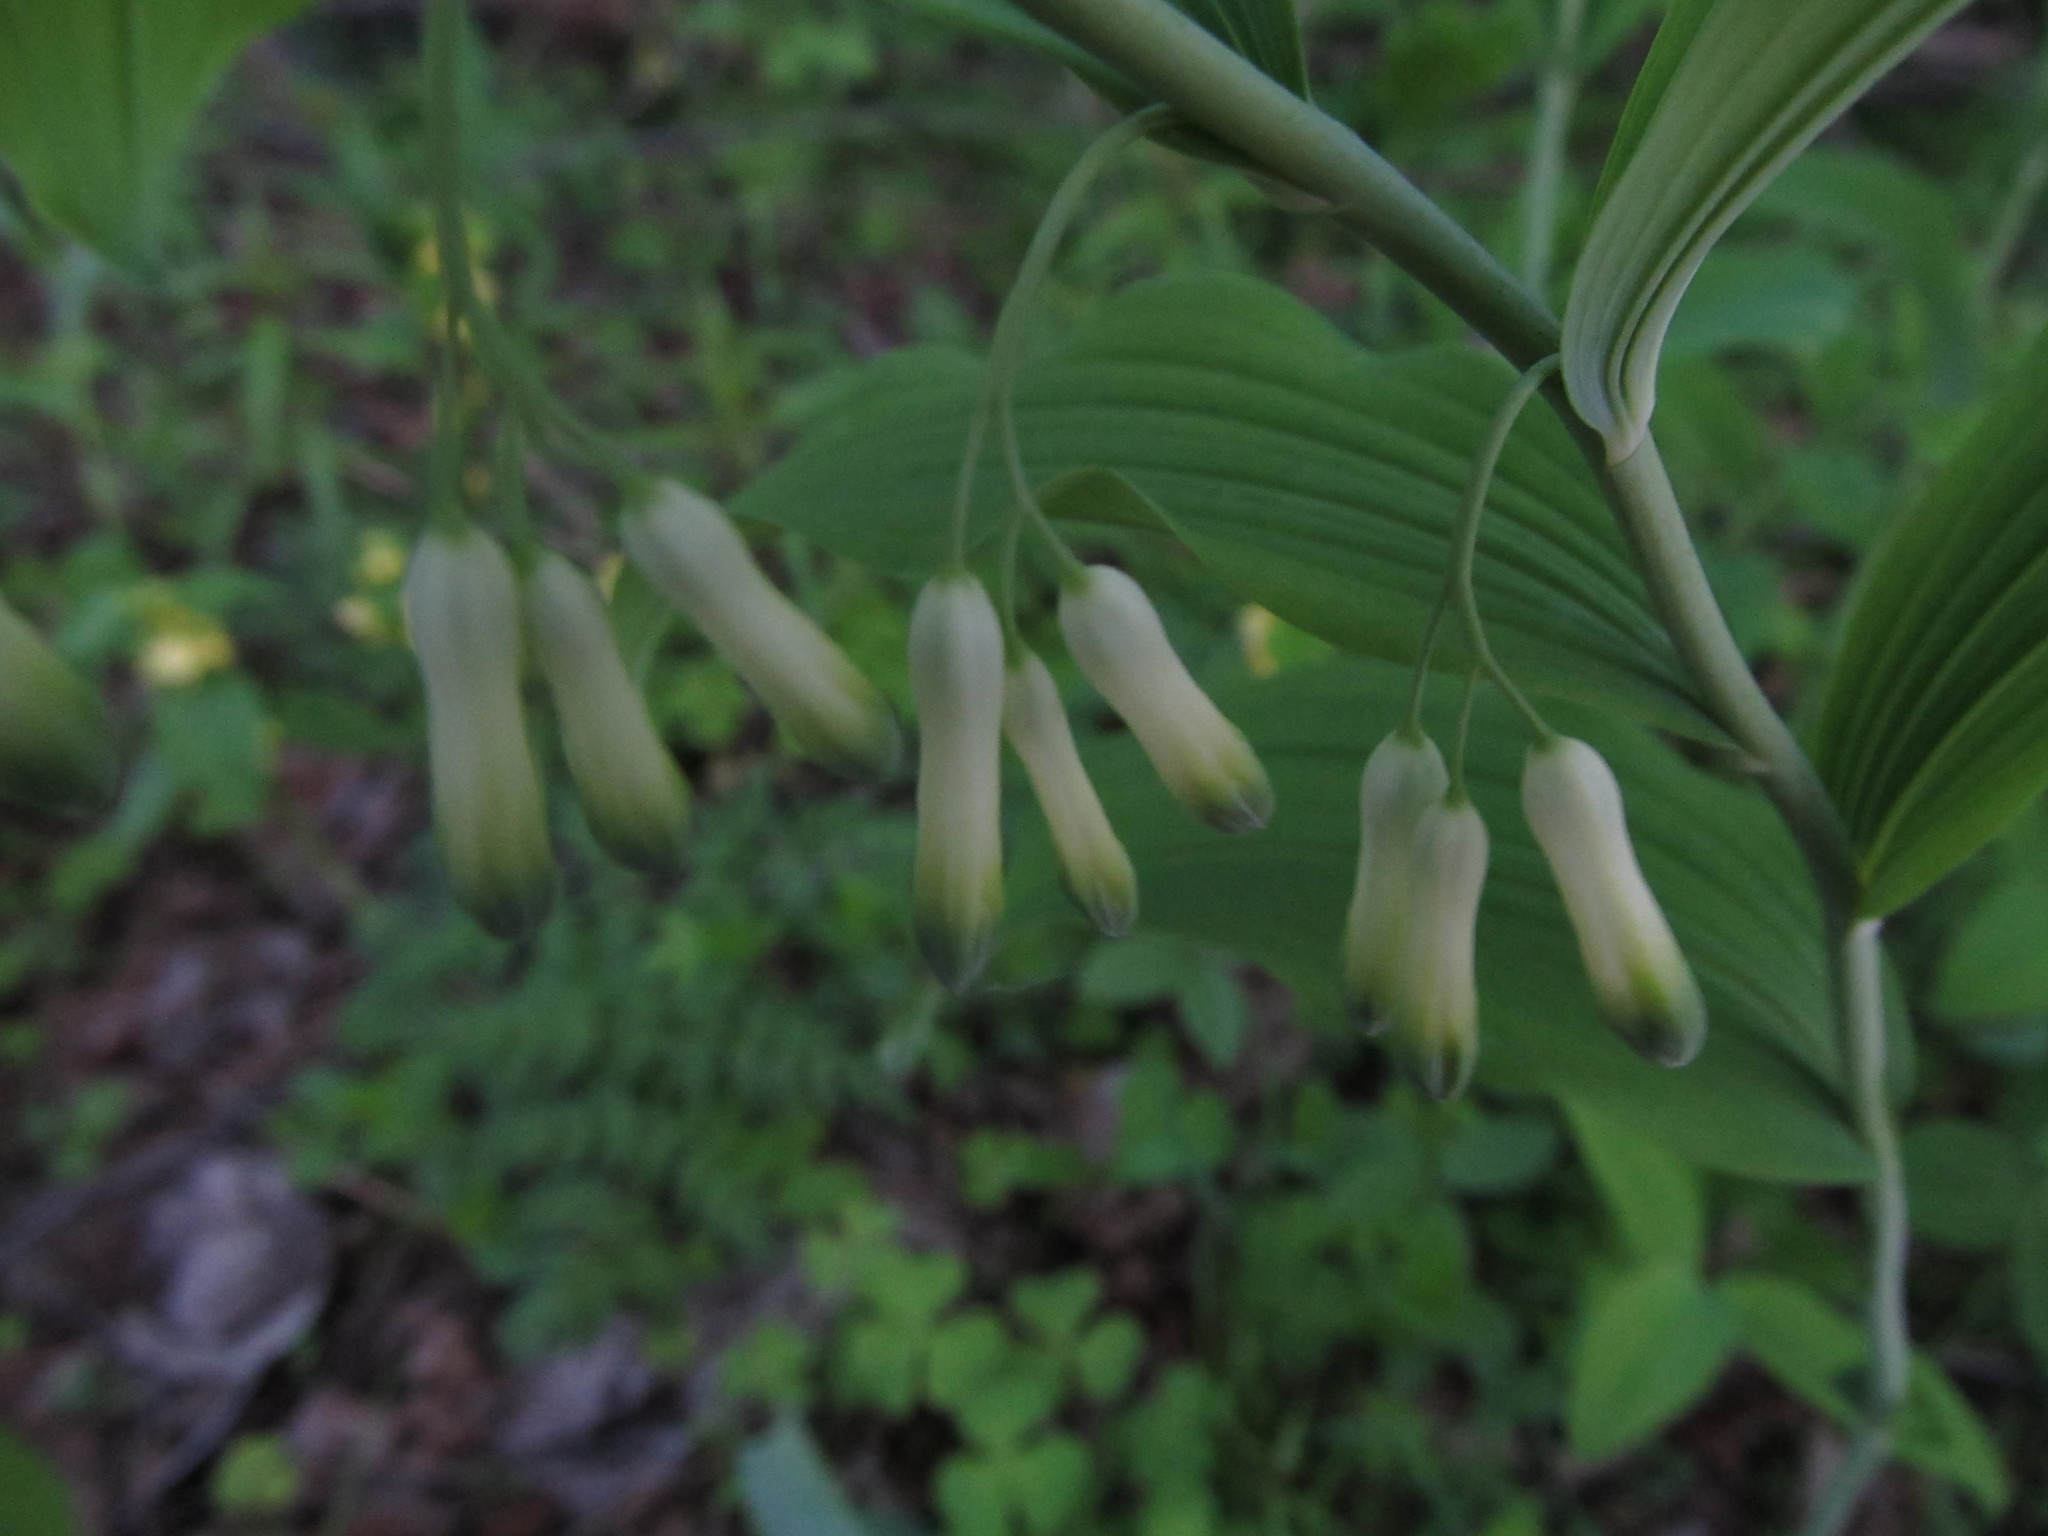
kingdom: Plantae
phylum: Tracheophyta
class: Liliopsida
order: Asparagales
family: Asparagaceae
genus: Polygonatum
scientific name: Polygonatum multiflorum
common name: Solomon's-seal
